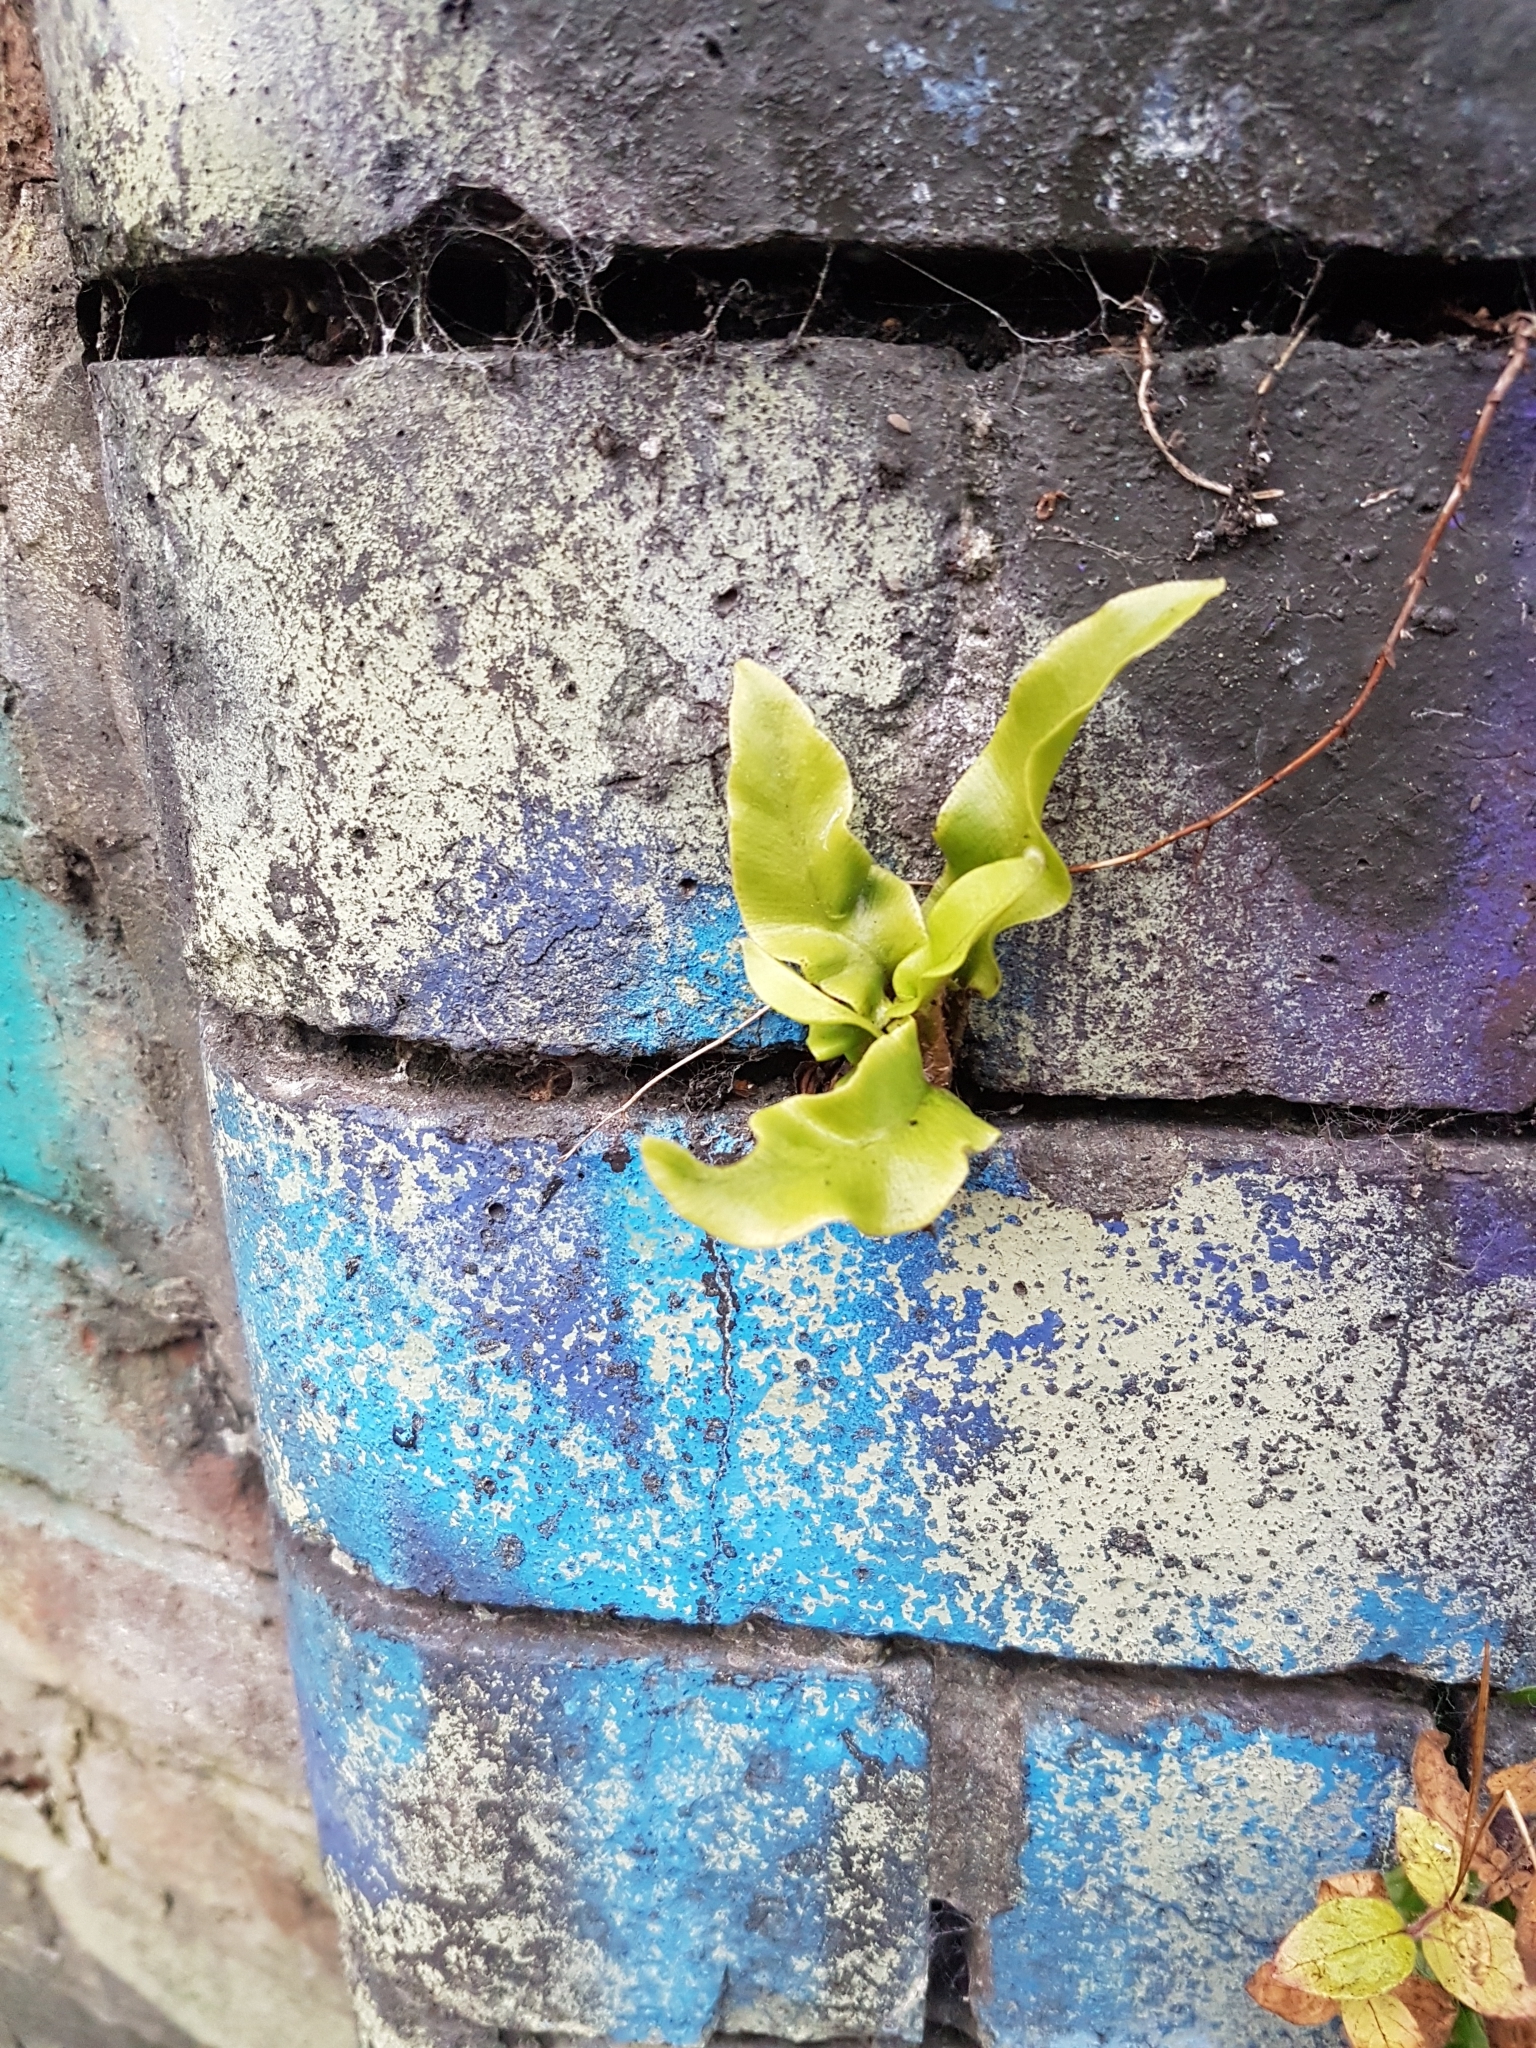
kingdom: Plantae
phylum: Tracheophyta
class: Polypodiopsida
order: Polypodiales
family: Aspleniaceae
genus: Asplenium
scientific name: Asplenium scolopendrium
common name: Hart's-tongue fern
